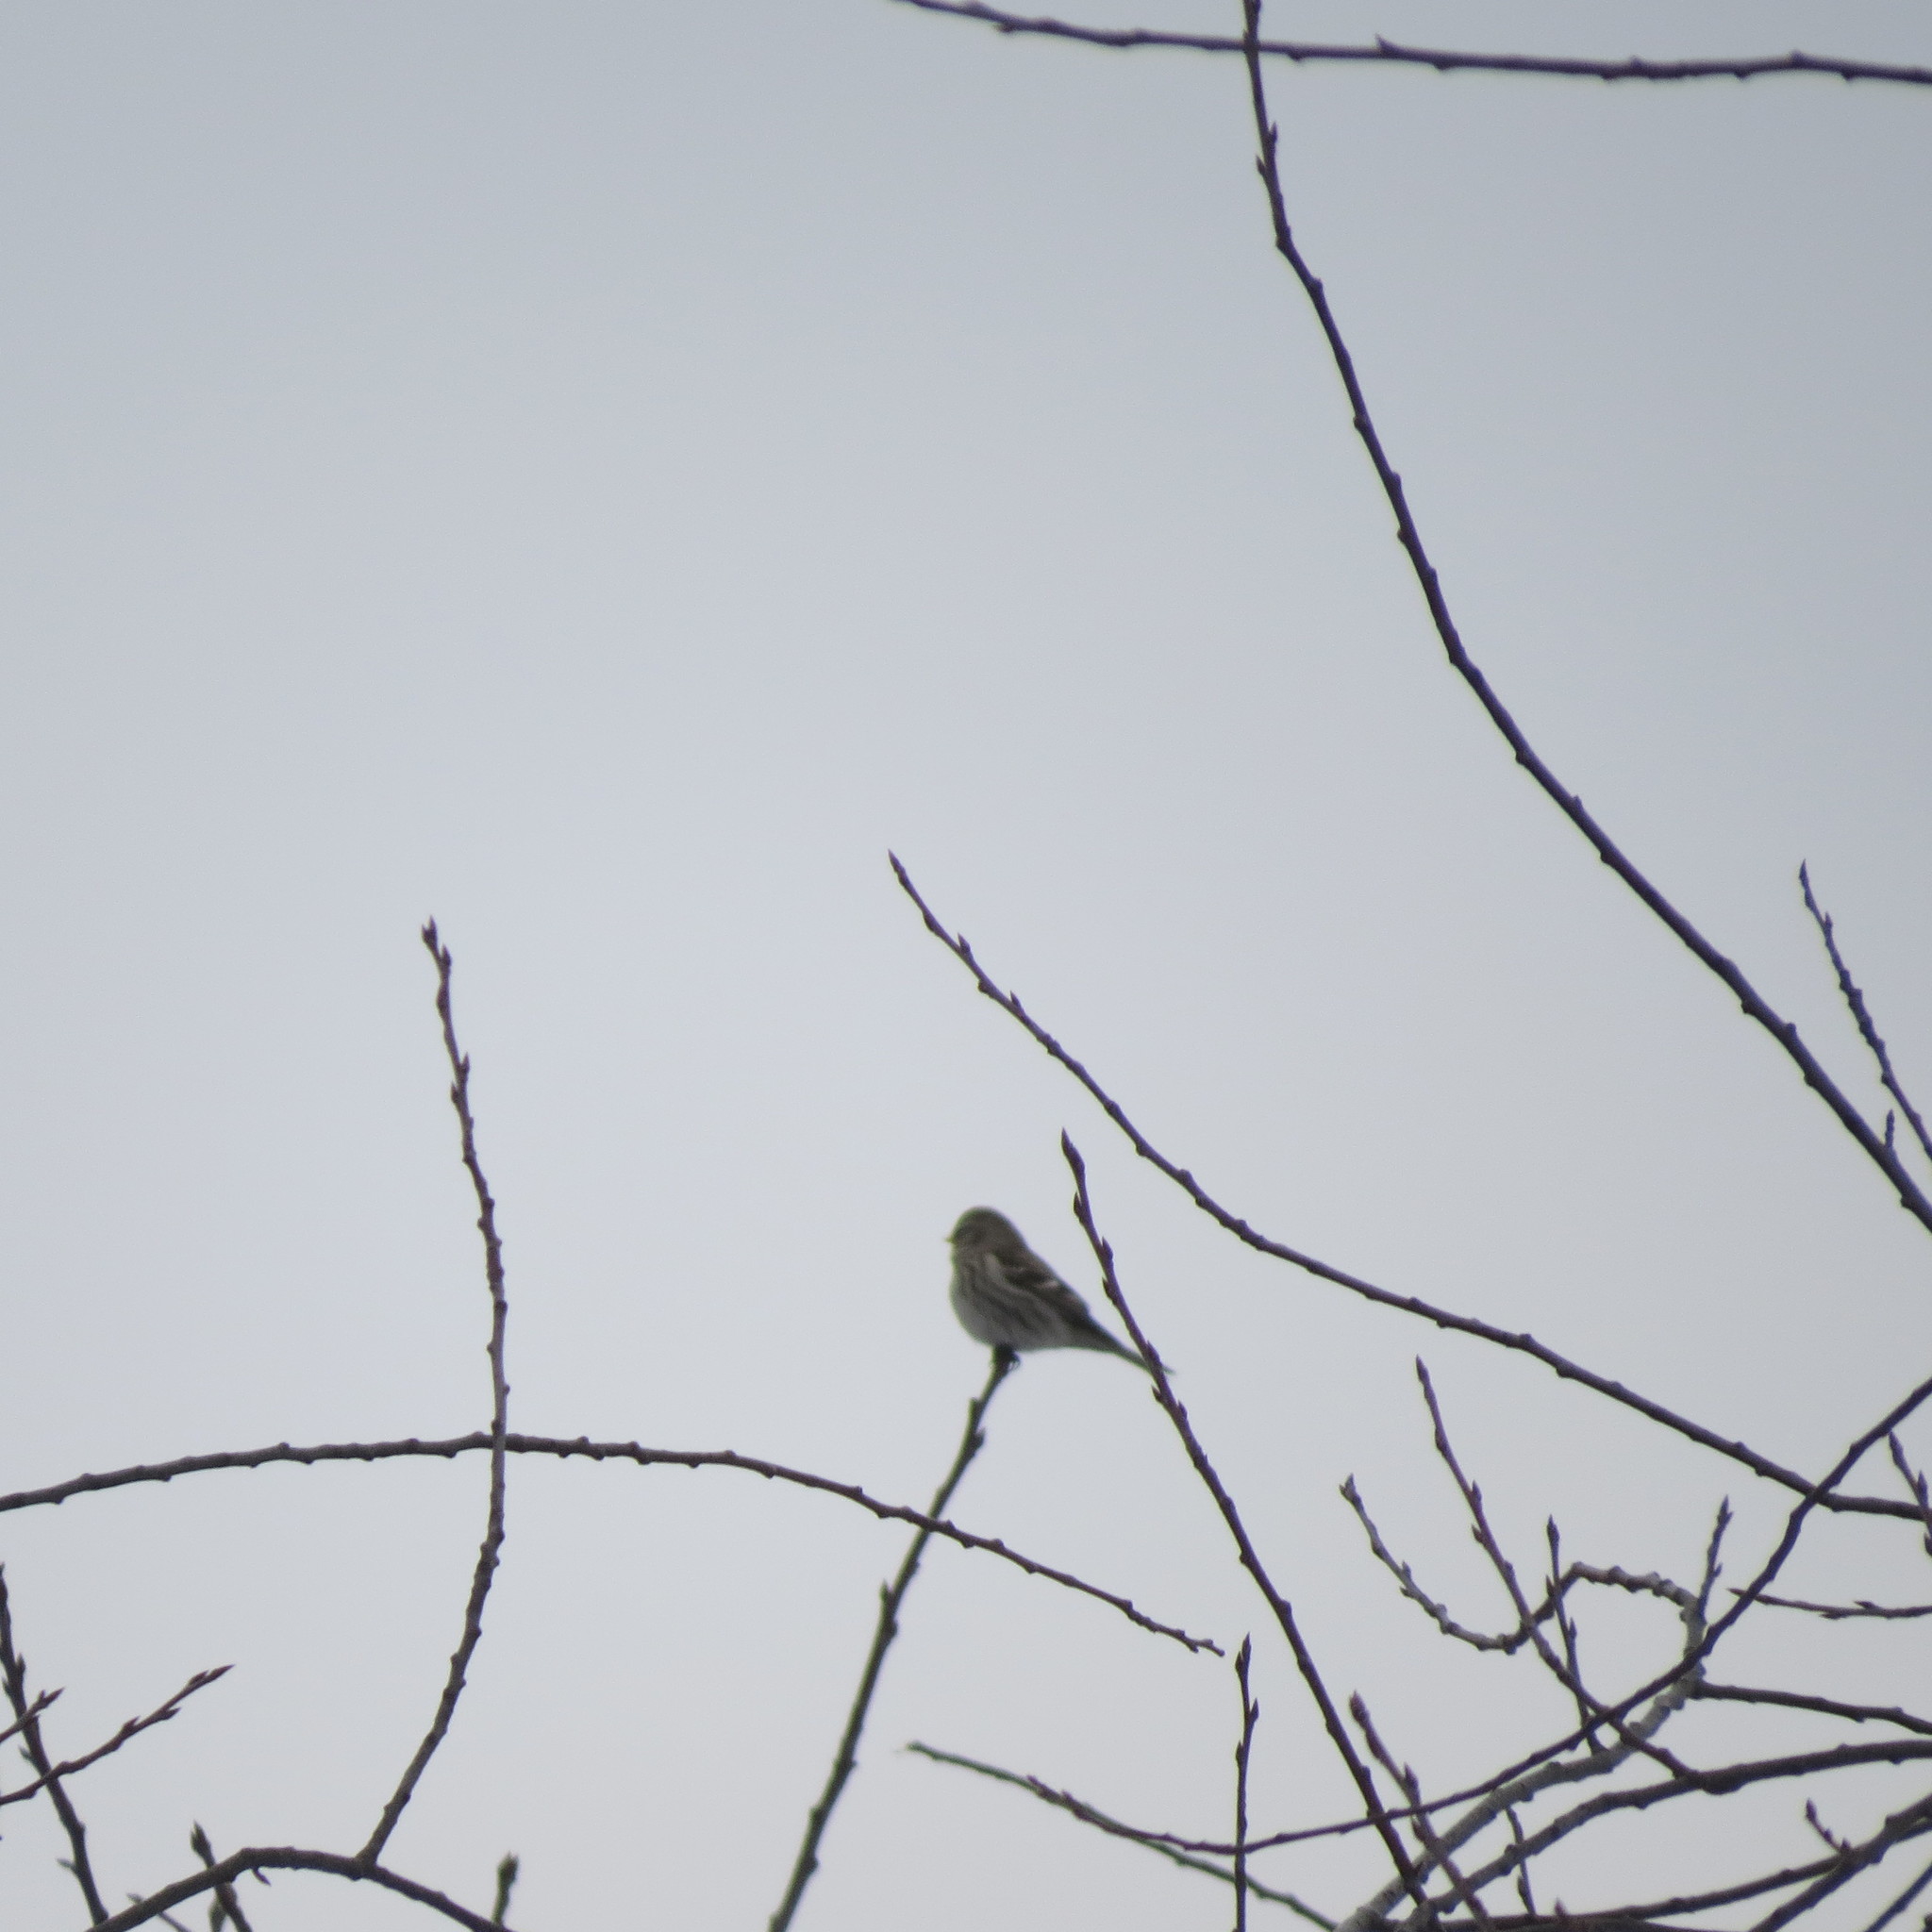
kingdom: Animalia
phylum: Chordata
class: Aves
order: Passeriformes
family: Fringillidae
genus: Acanthis
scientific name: Acanthis flammea
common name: Common redpoll
